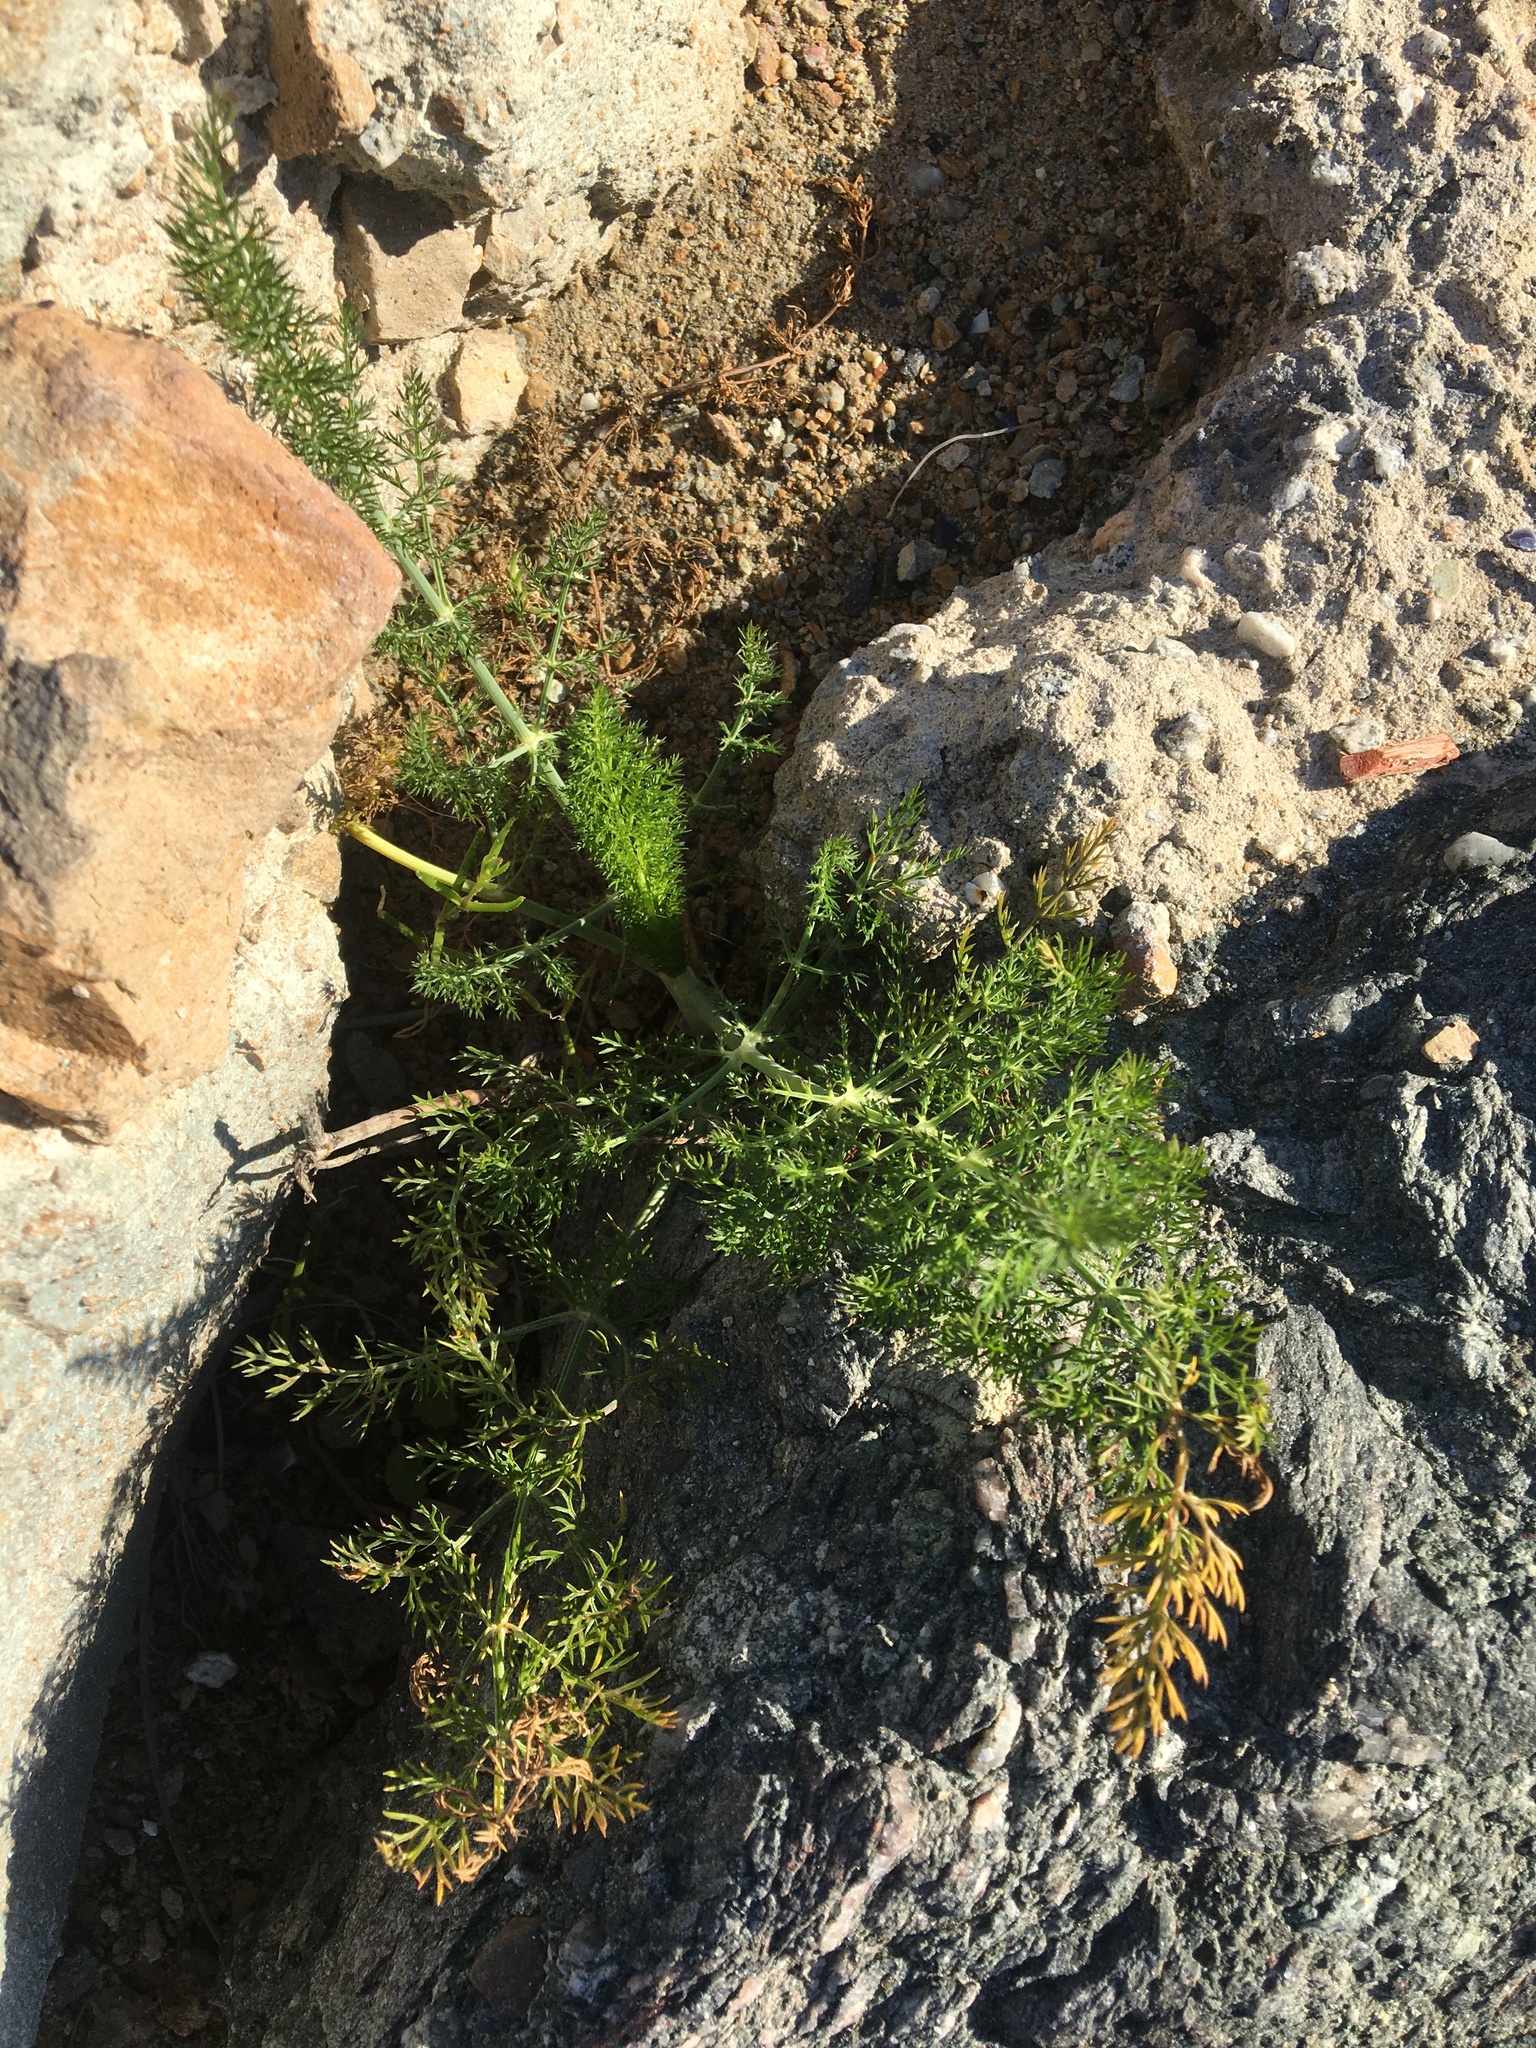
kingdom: Plantae
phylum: Tracheophyta
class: Magnoliopsida
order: Apiales
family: Apiaceae
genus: Foeniculum
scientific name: Foeniculum vulgare
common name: Fennel
